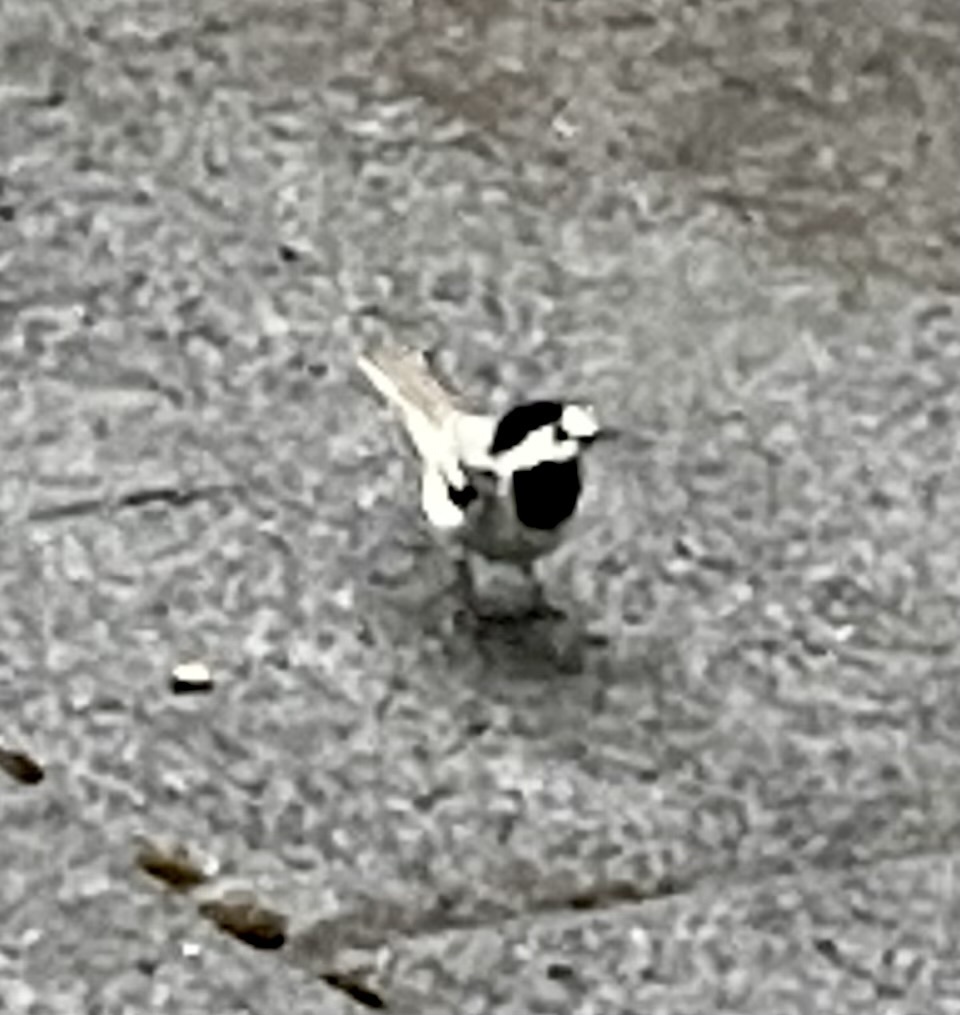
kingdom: Animalia
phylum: Chordata
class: Aves
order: Passeriformes
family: Motacillidae
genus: Motacilla
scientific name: Motacilla alba
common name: White wagtail
